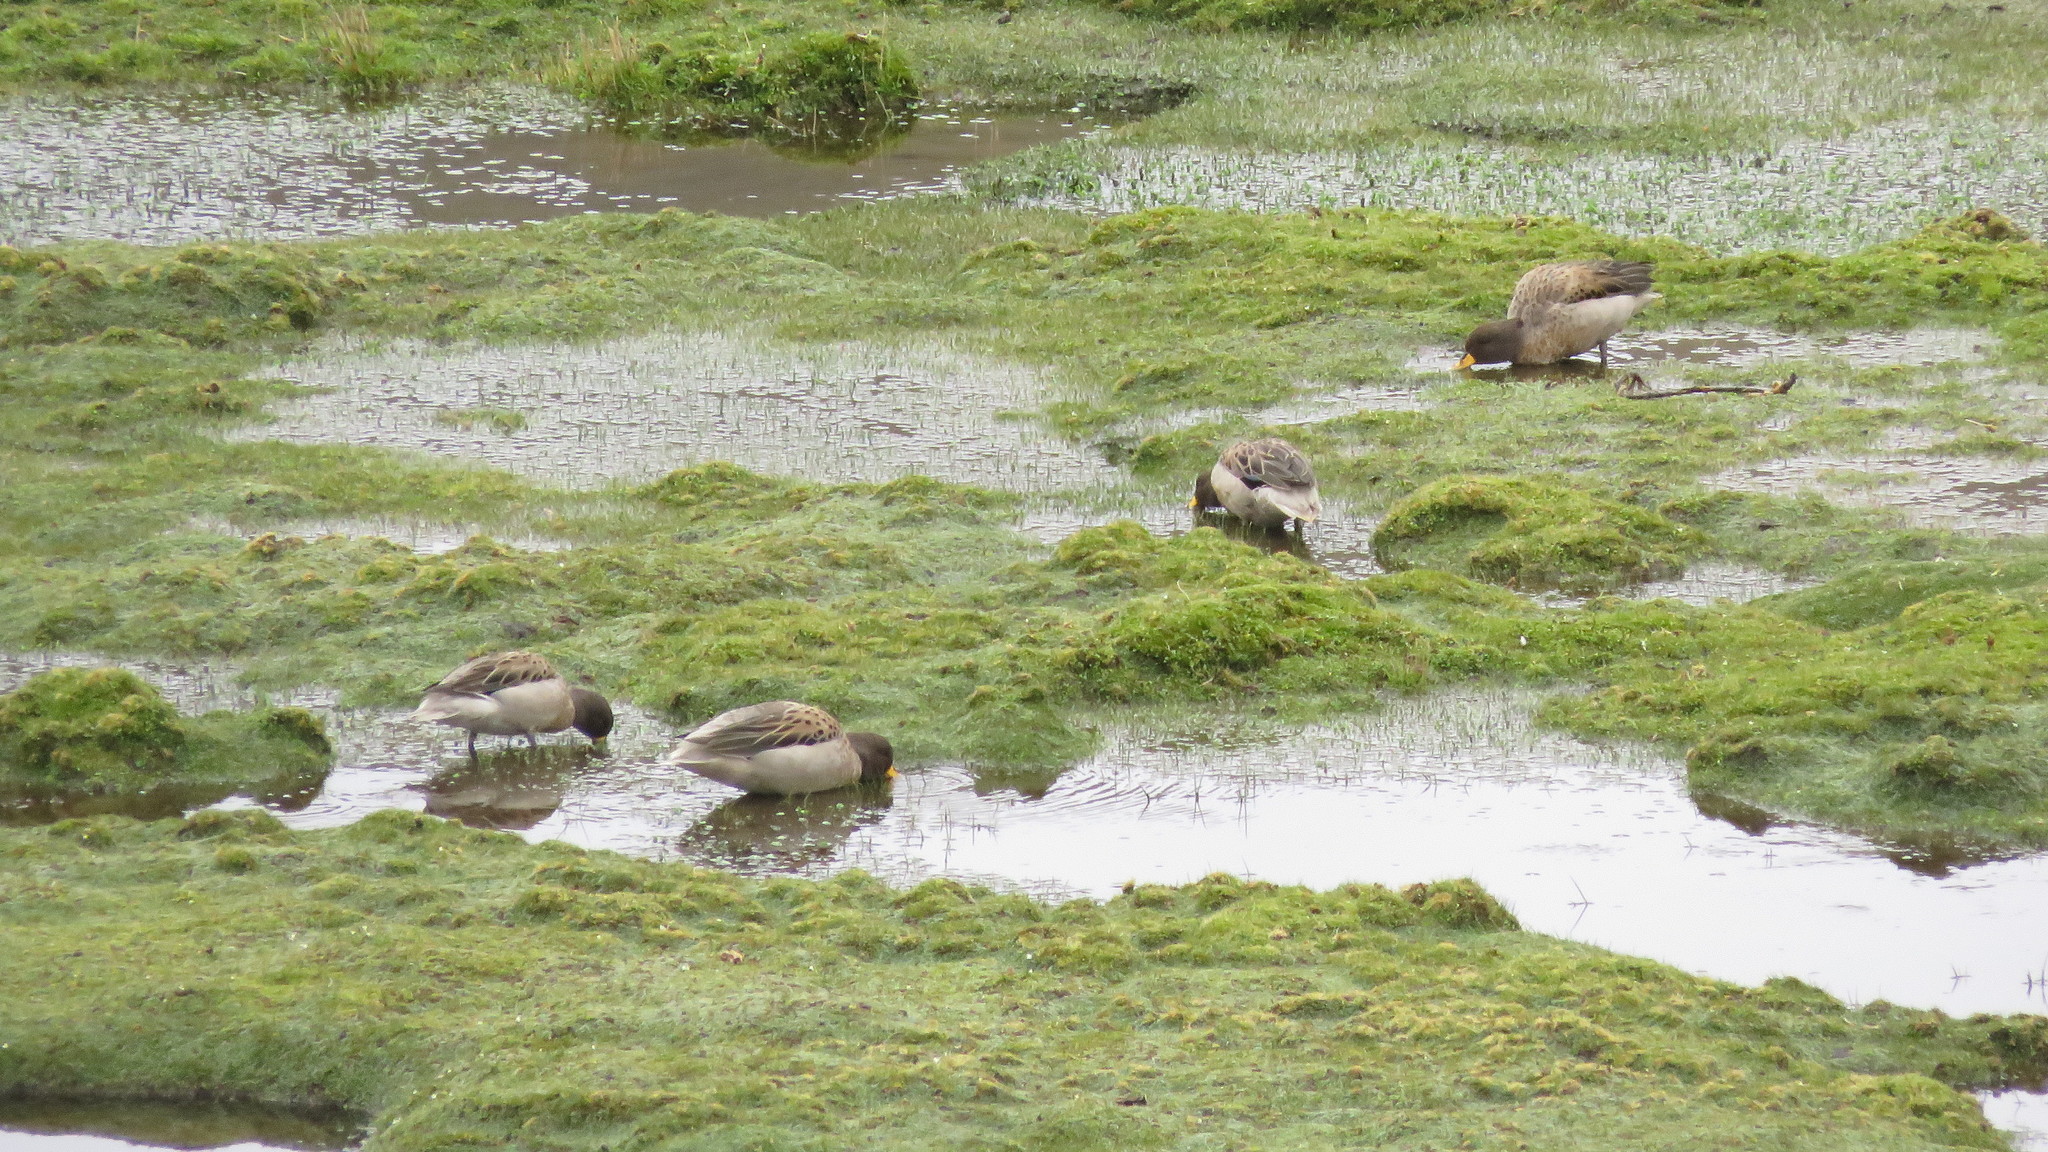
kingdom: Animalia
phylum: Chordata
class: Aves
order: Anseriformes
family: Anatidae
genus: Anas
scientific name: Anas flavirostris
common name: Yellow-billed teal
